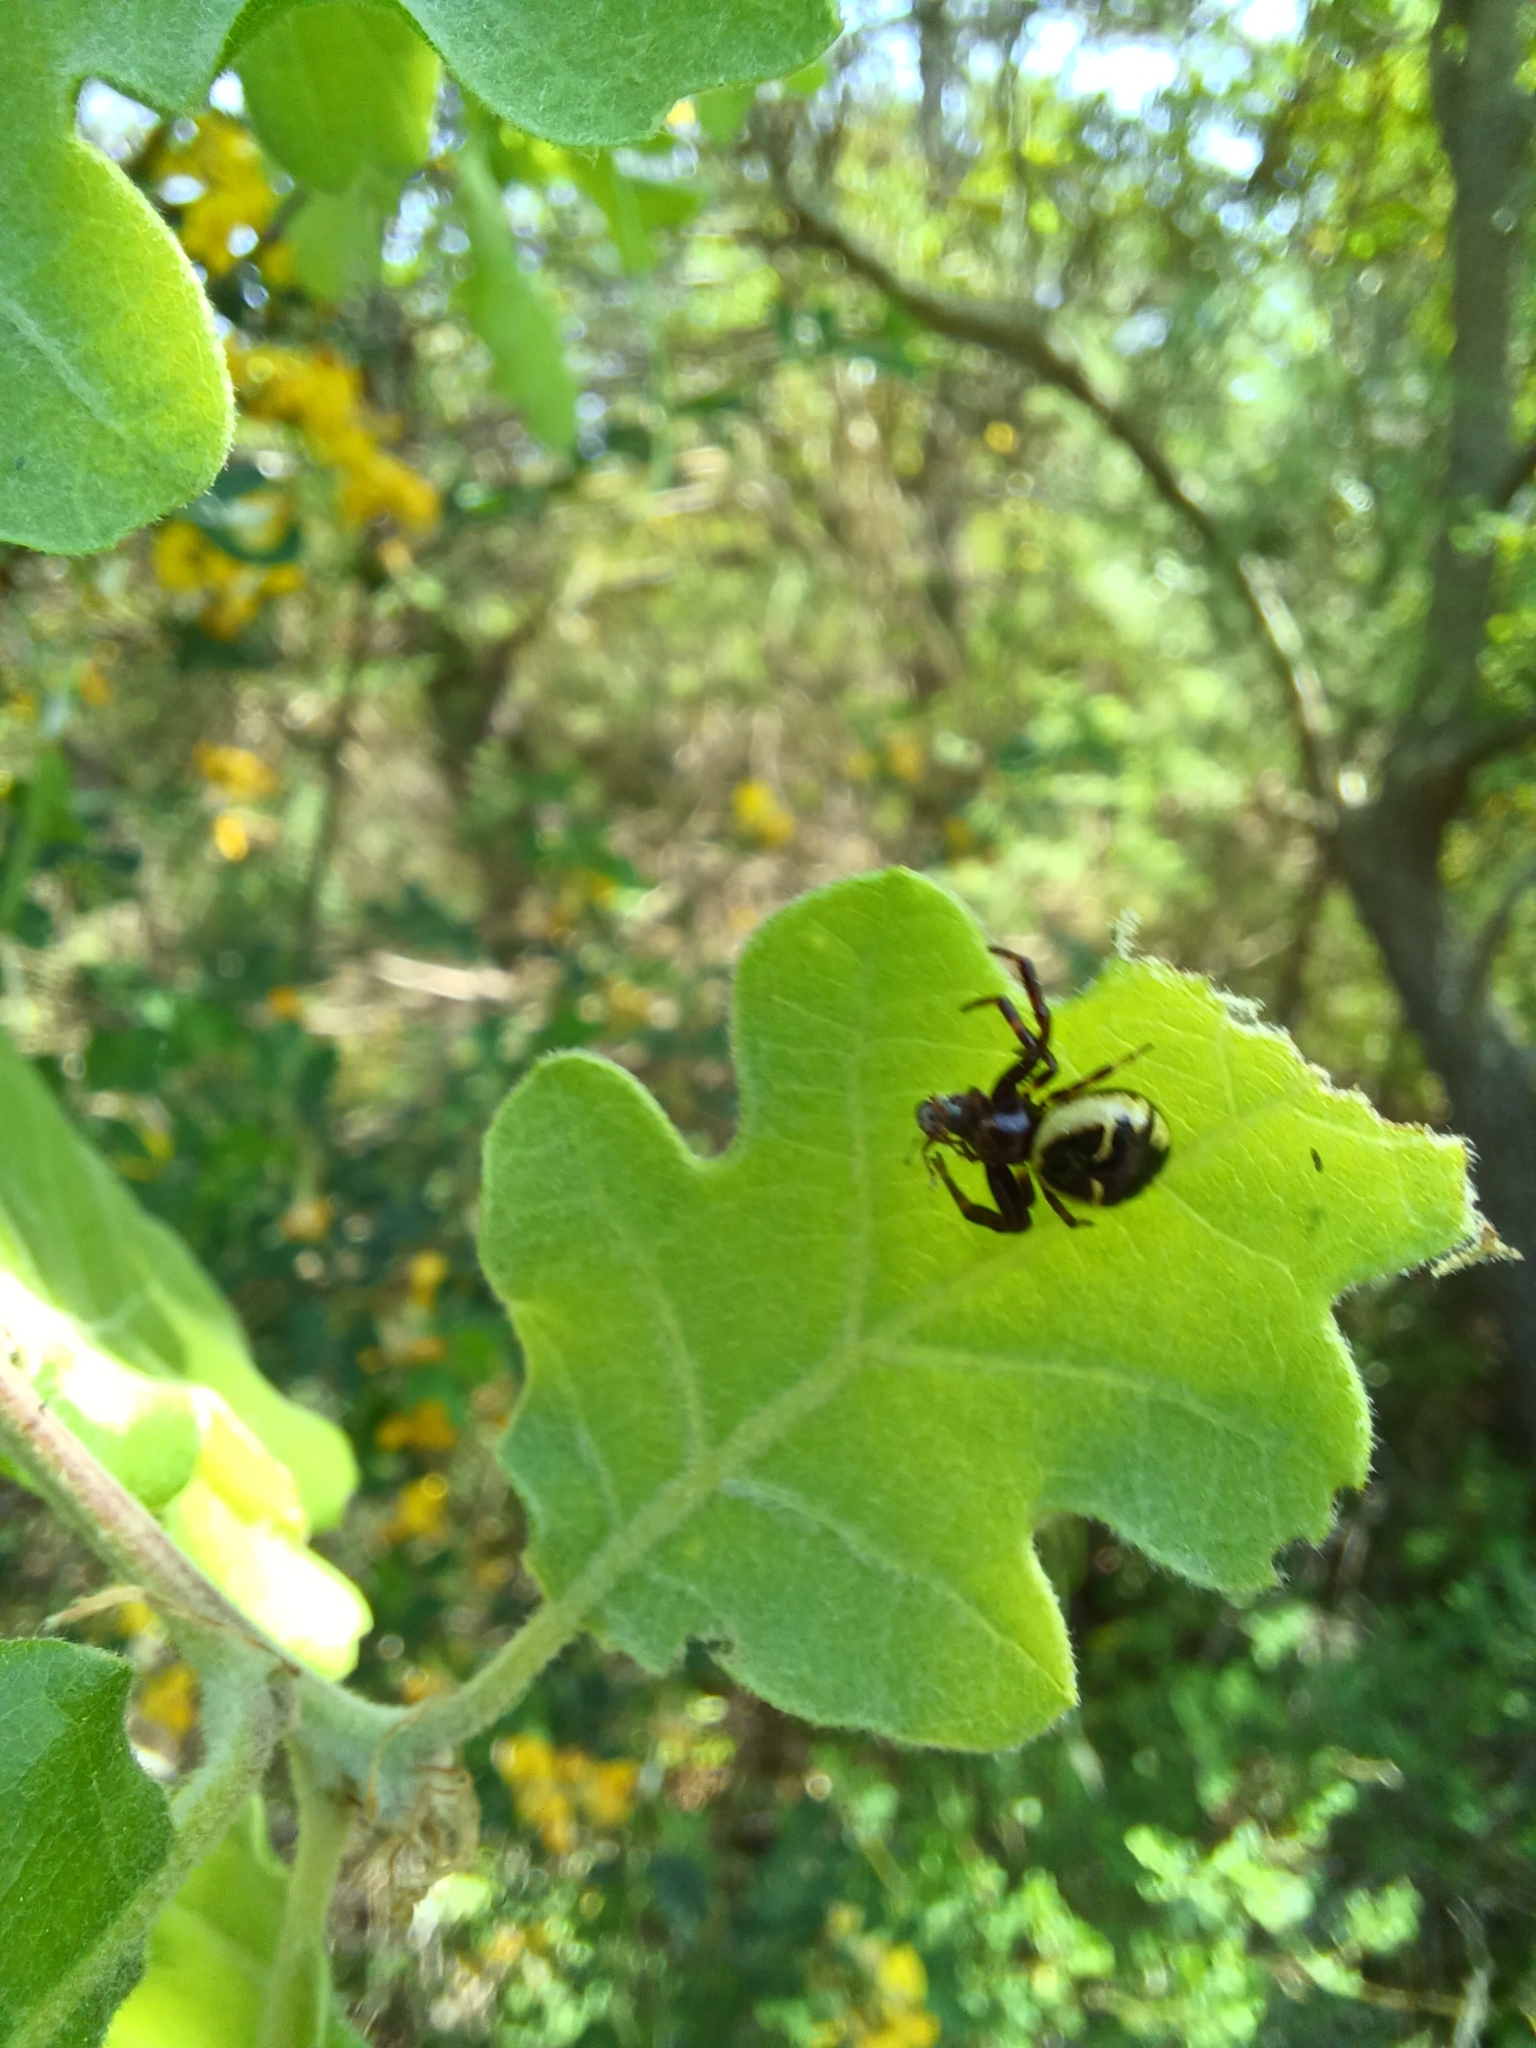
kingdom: Animalia
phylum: Arthropoda
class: Arachnida
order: Araneae
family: Thomisidae
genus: Synema
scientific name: Synema globosum
